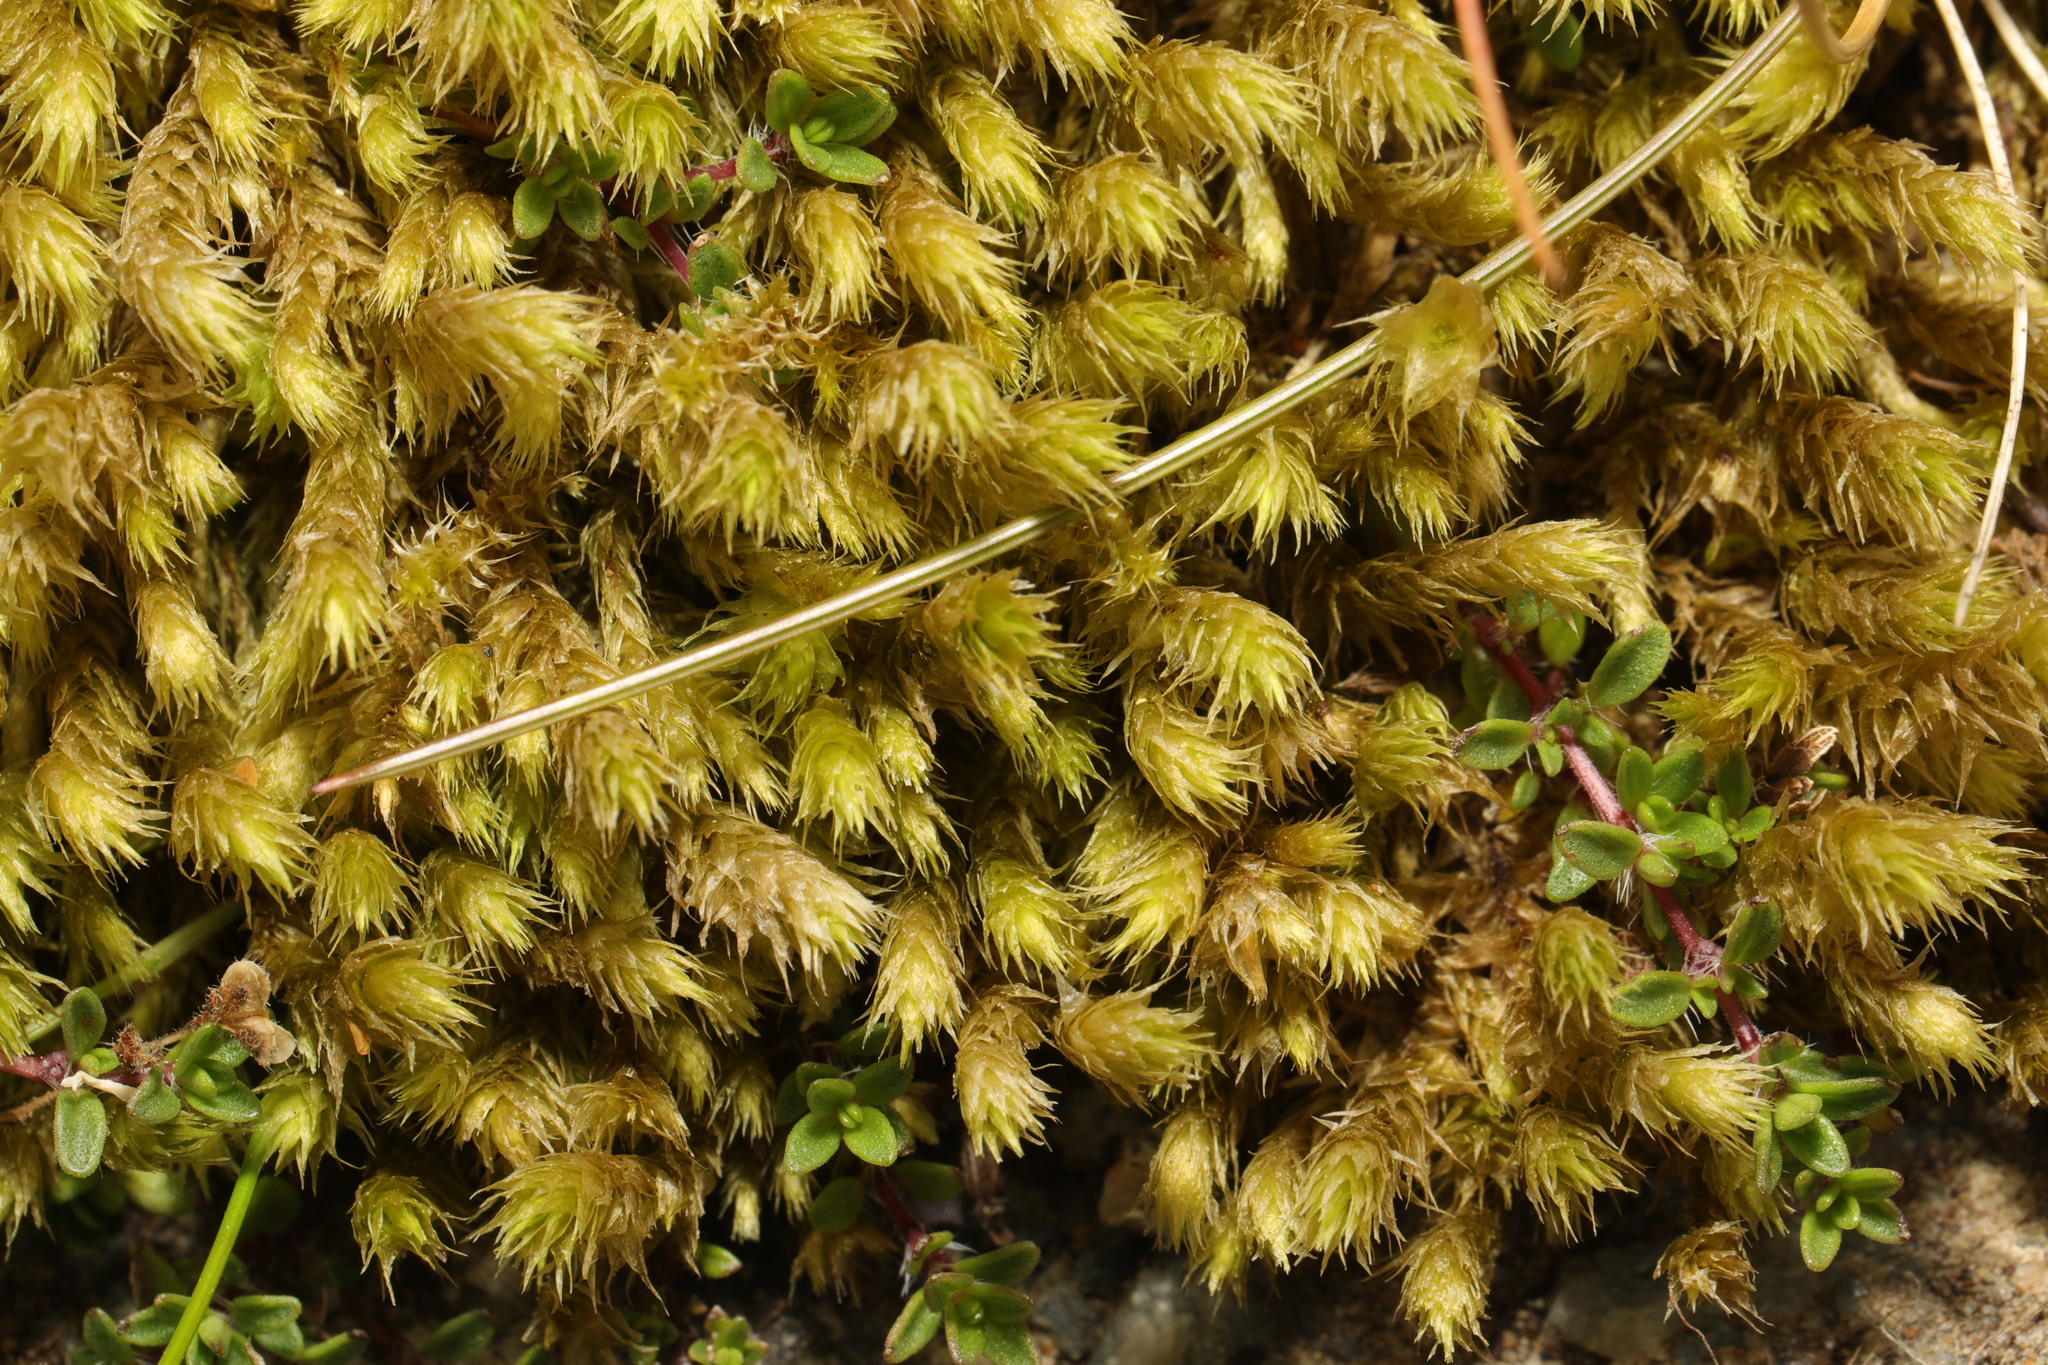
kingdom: Plantae
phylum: Bryophyta
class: Bryopsida
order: Hypnales
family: Hylocomiaceae
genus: Hylocomiadelphus
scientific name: Hylocomiadelphus triquetrus
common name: Rough goose neck moss
